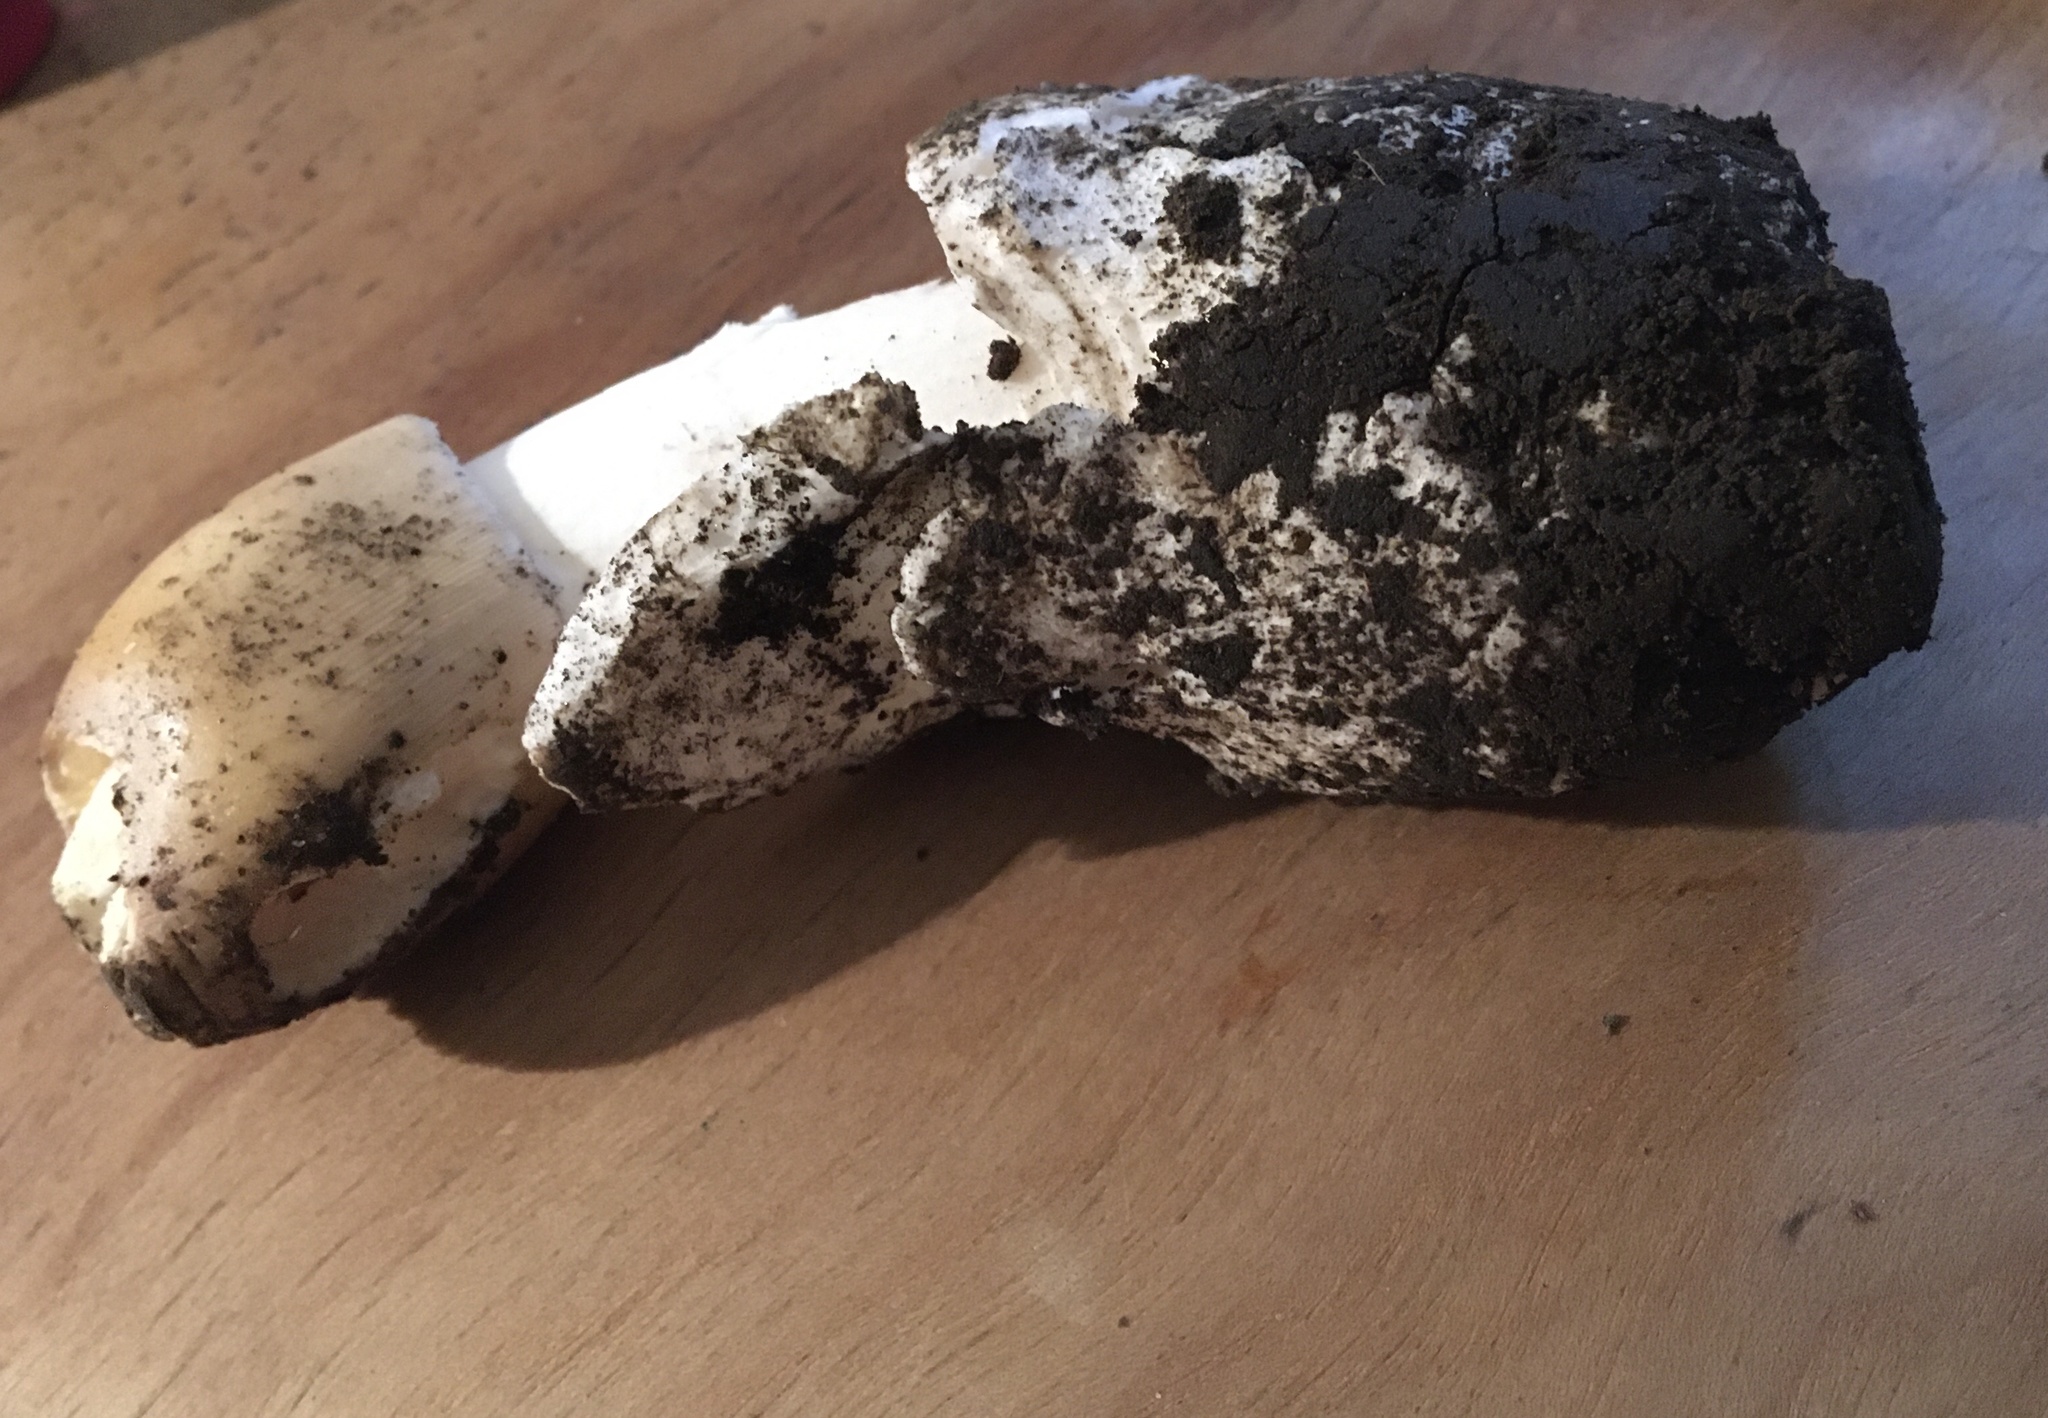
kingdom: Fungi
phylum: Basidiomycota
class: Agaricomycetes
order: Agaricales
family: Amanitaceae
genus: Amanita
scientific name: Amanita murrilliana
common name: Murrill's slender caesar
